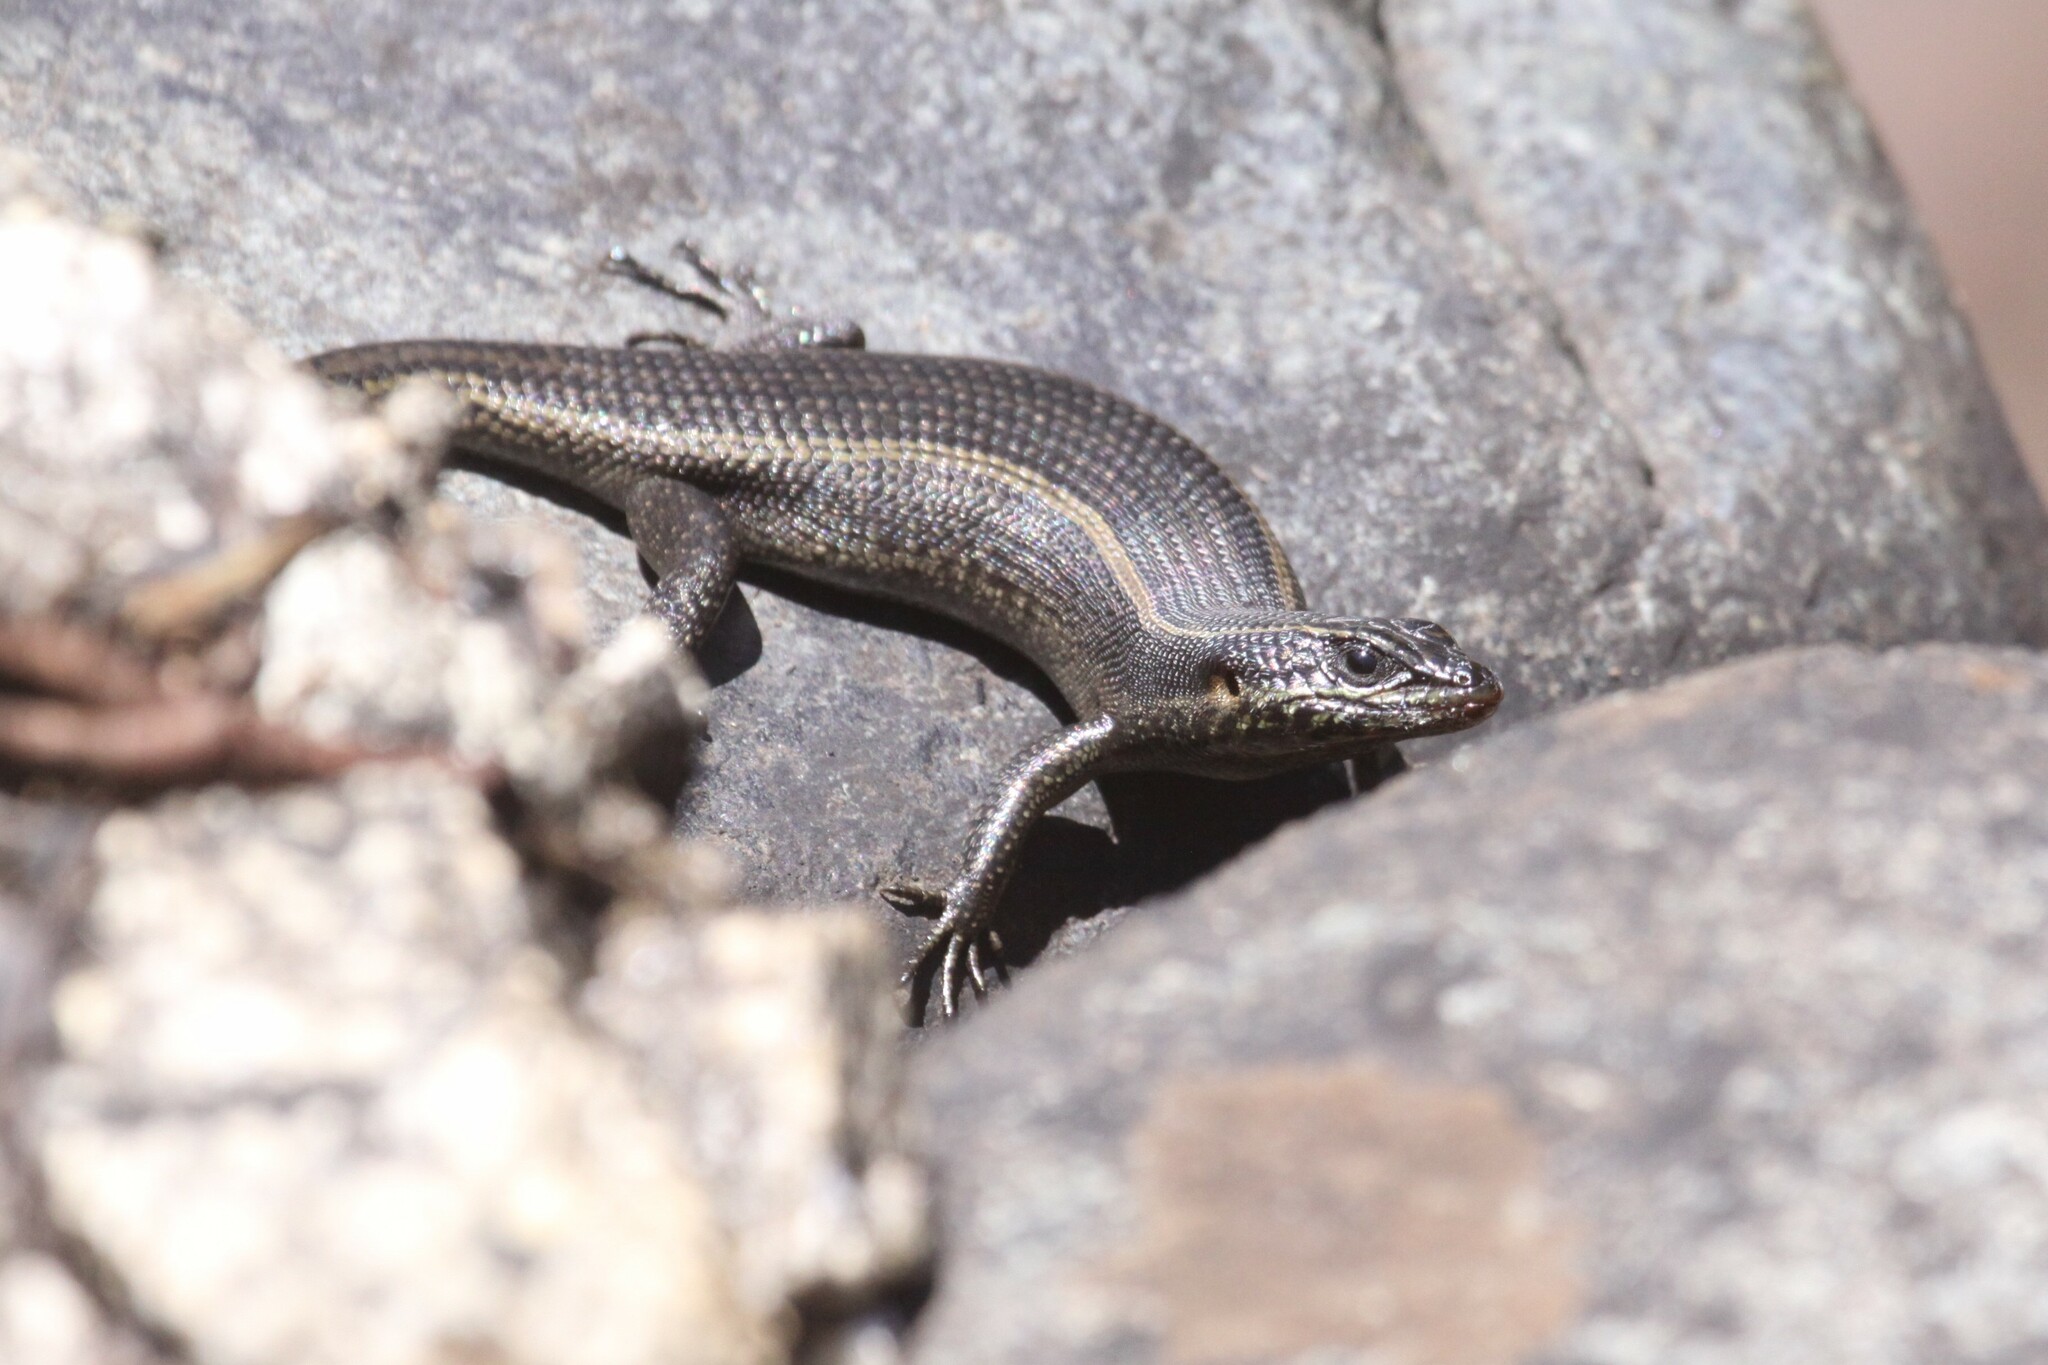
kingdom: Animalia
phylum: Chordata
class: Squamata
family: Scincidae
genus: Trachylepis
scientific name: Trachylepis punctatissima
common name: Montane speckled skink
